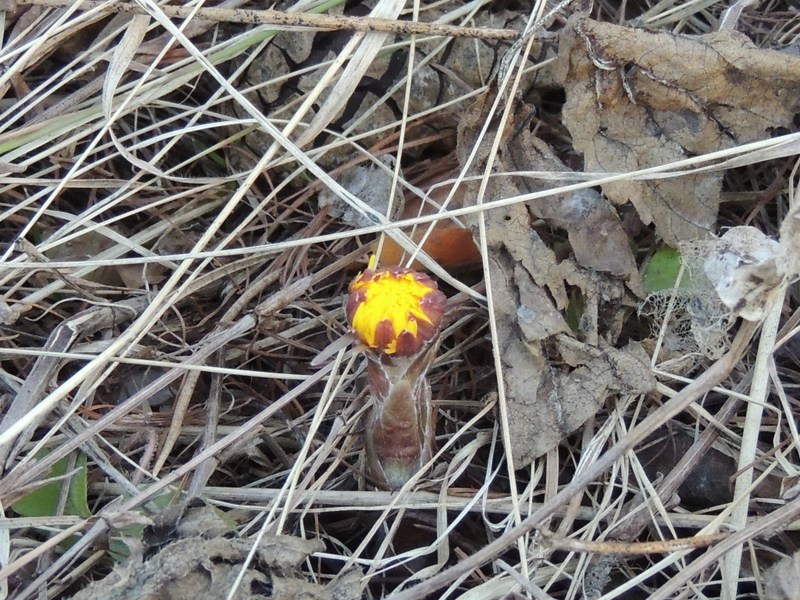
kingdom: Plantae
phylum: Tracheophyta
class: Magnoliopsida
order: Asterales
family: Asteraceae
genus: Tussilago
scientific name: Tussilago farfara
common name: Coltsfoot
